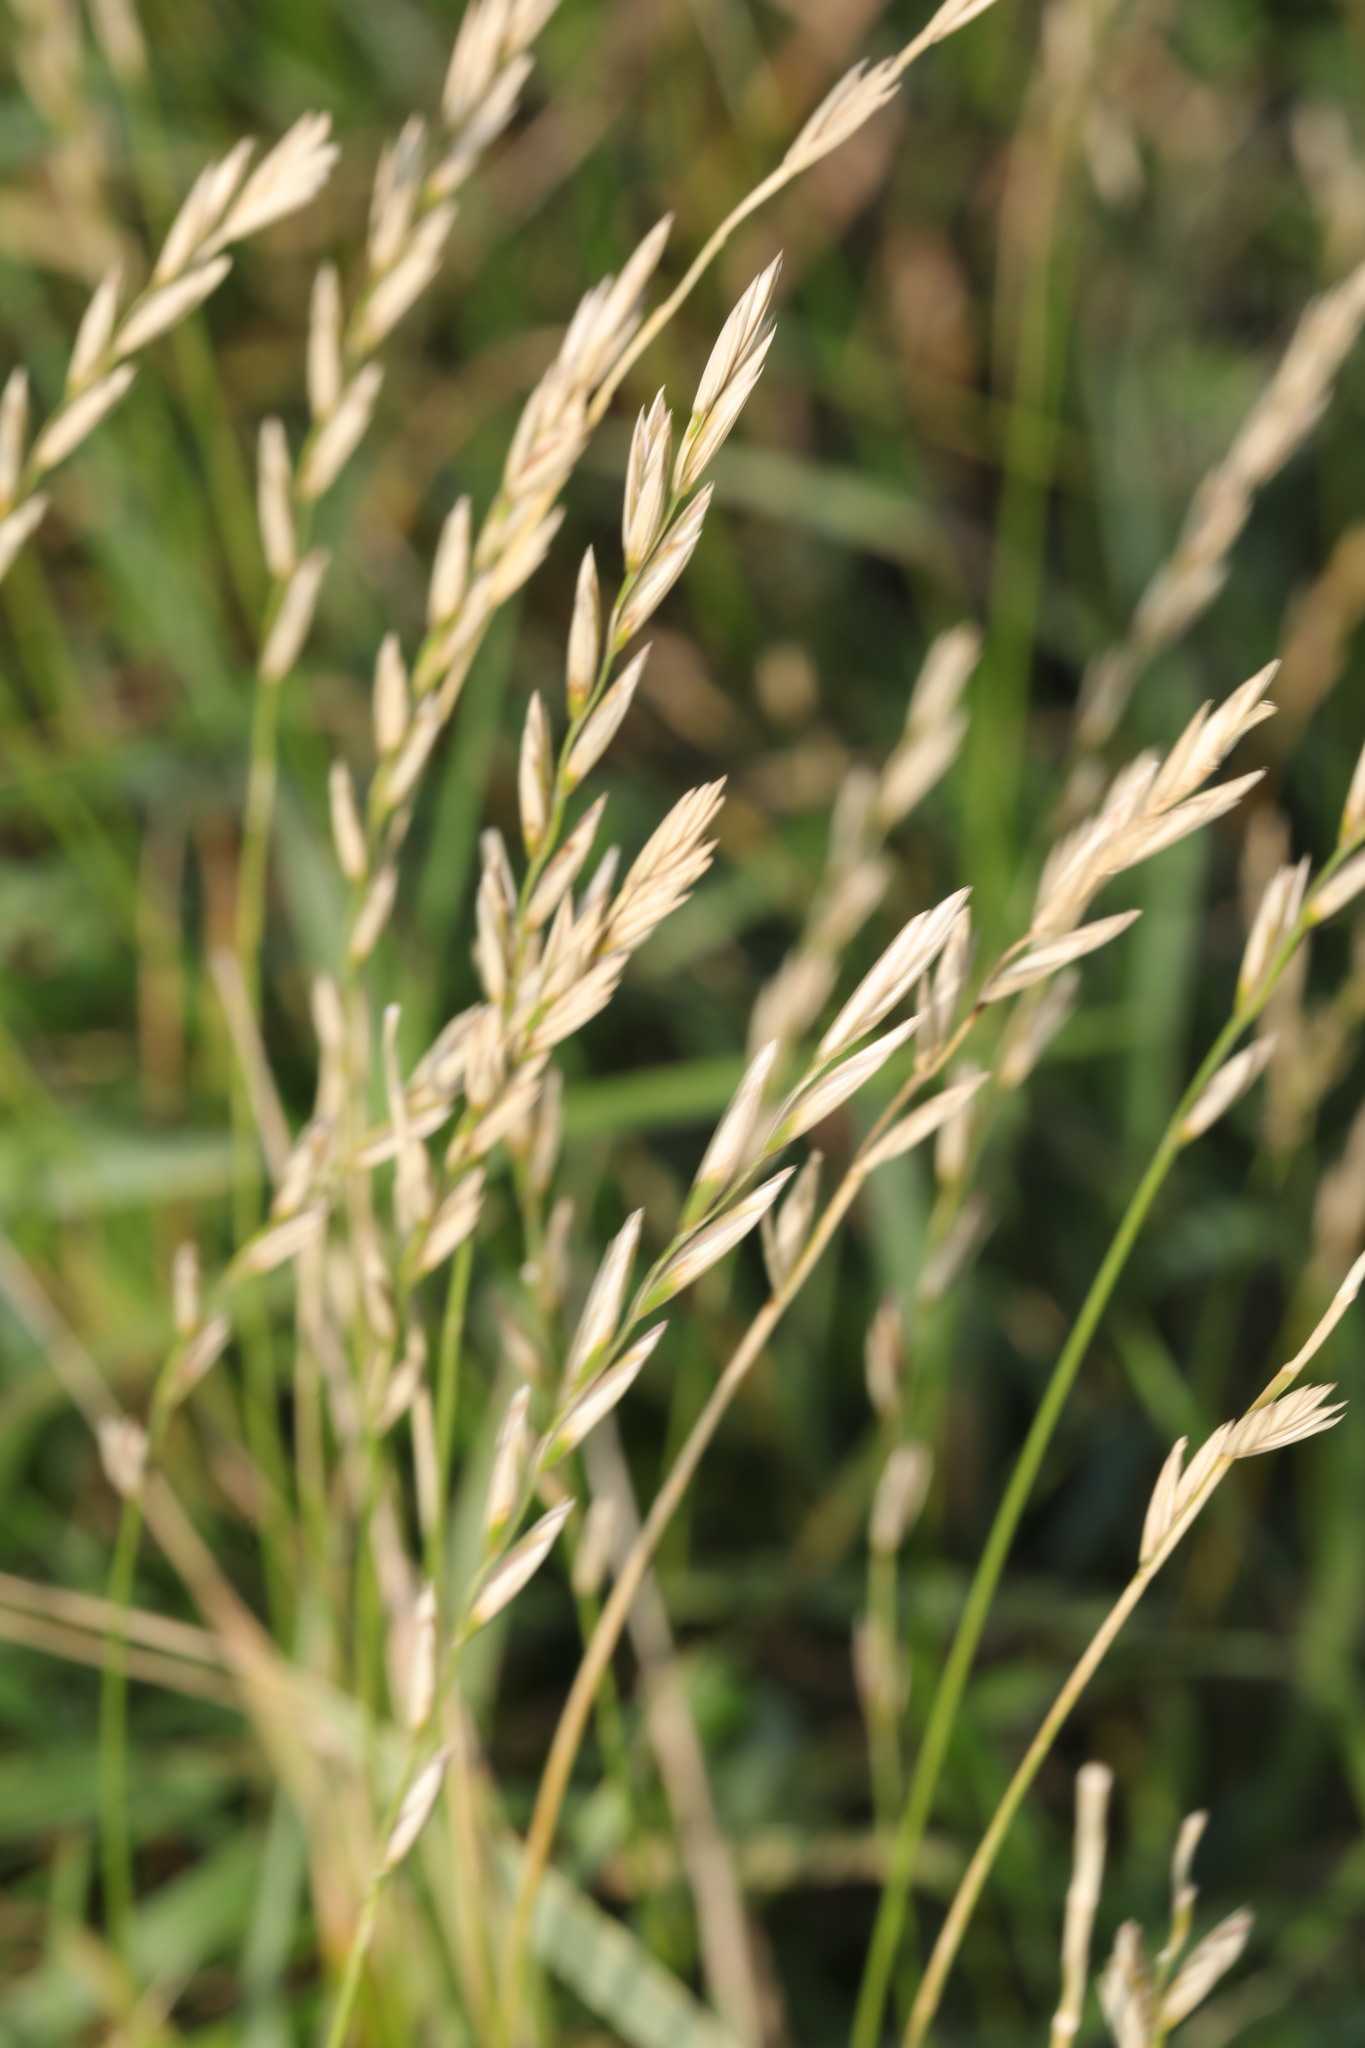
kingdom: Plantae
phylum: Tracheophyta
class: Liliopsida
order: Poales
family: Poaceae
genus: Elymus
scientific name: Elymus repens
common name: Quackgrass
